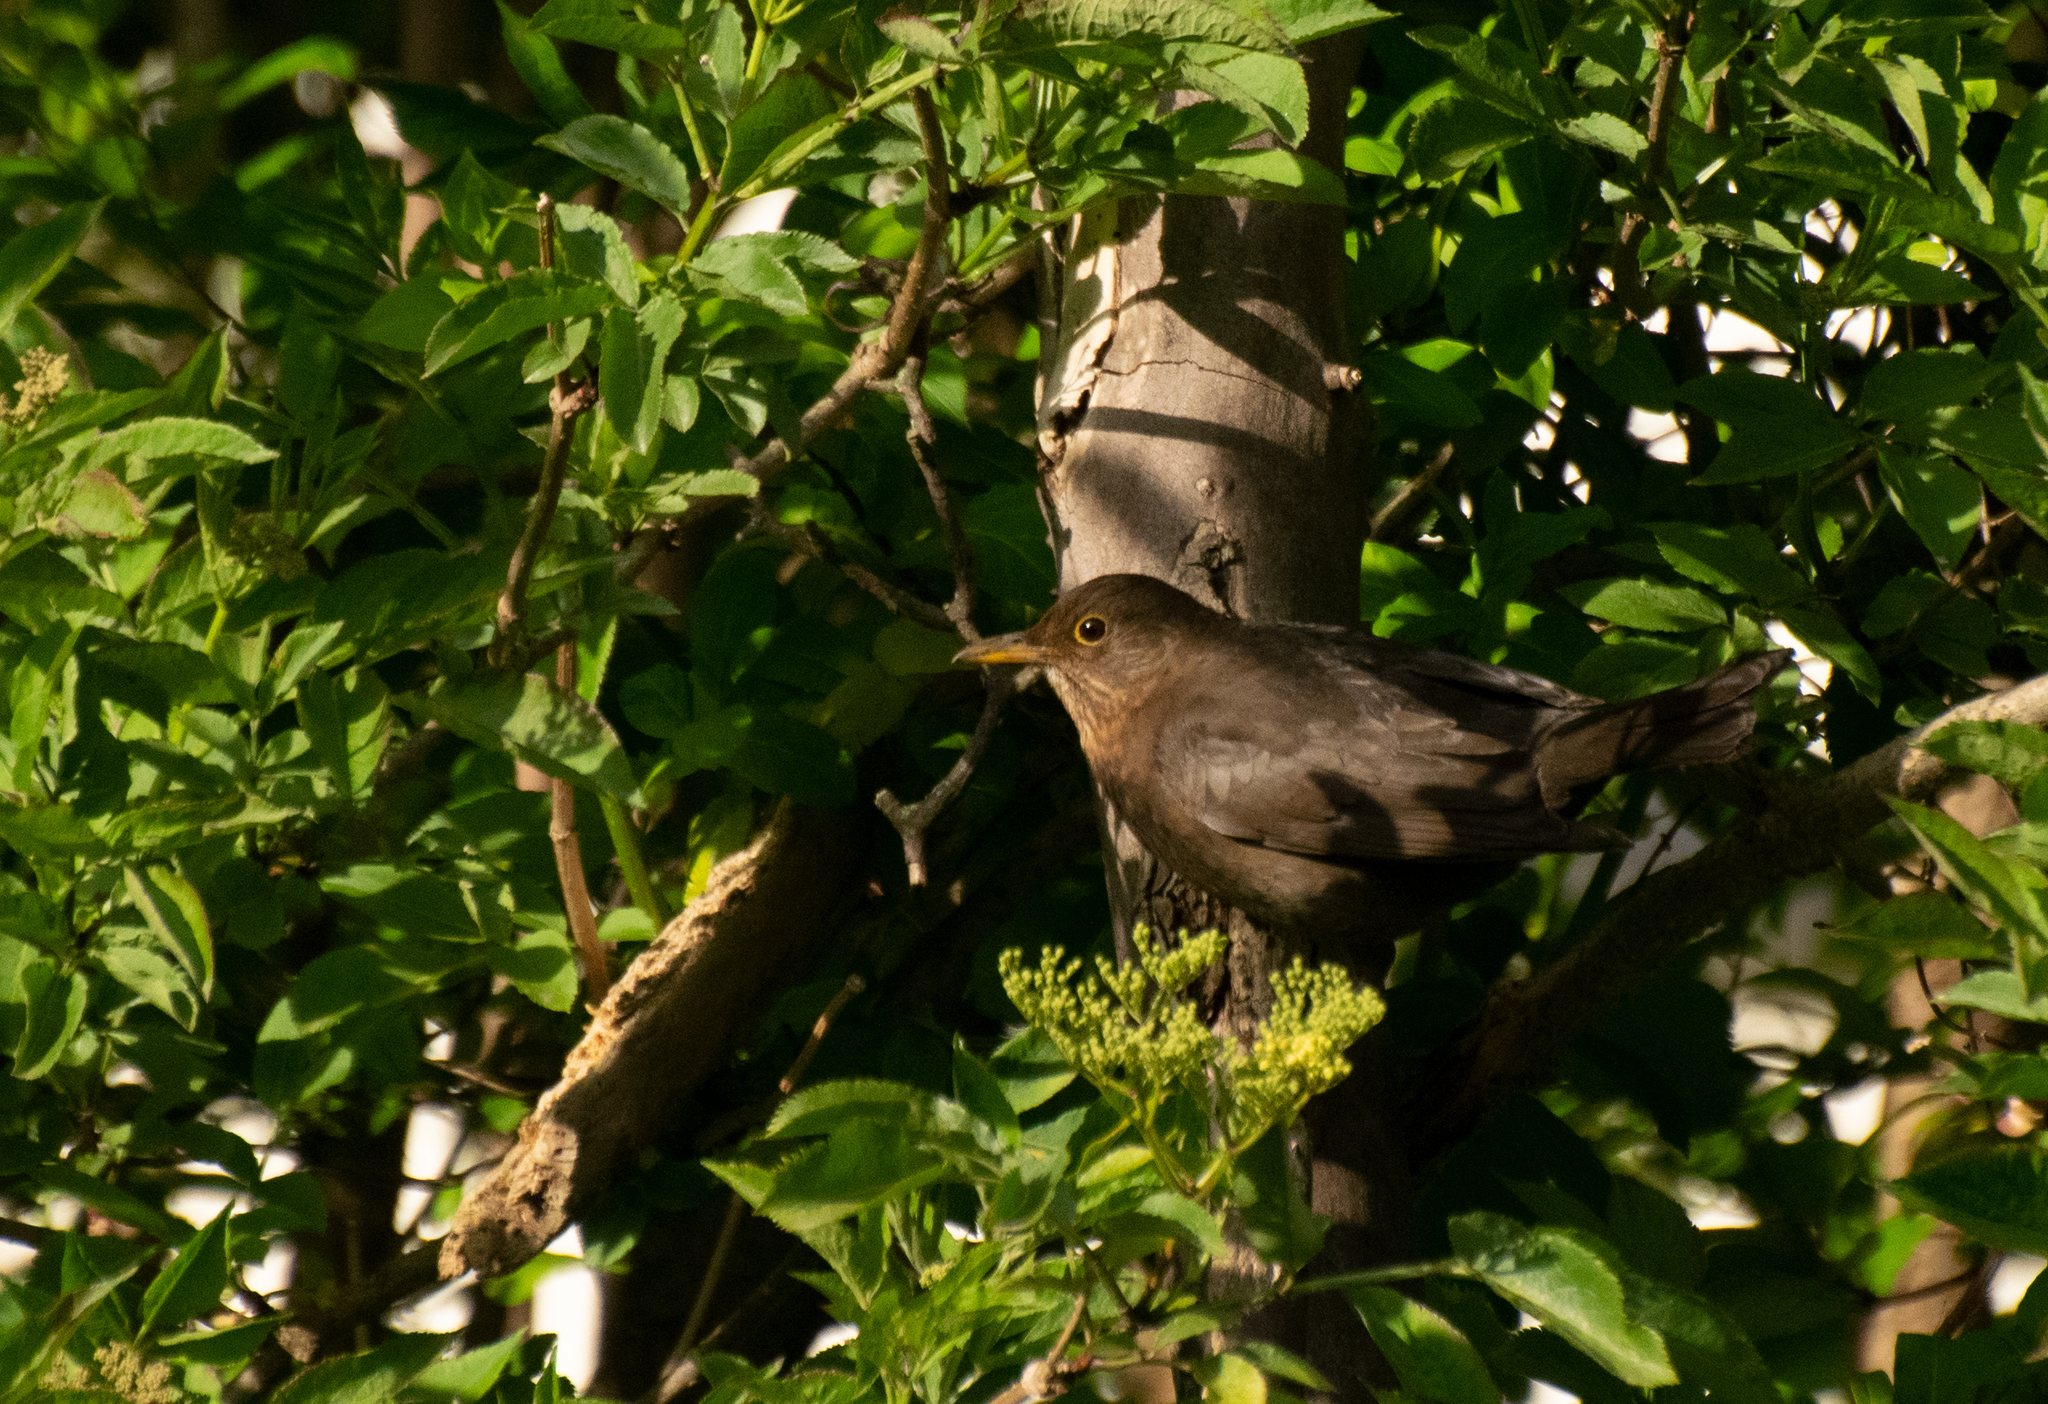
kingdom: Animalia
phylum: Chordata
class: Aves
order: Passeriformes
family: Turdidae
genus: Turdus
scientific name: Turdus merula
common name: Common blackbird
